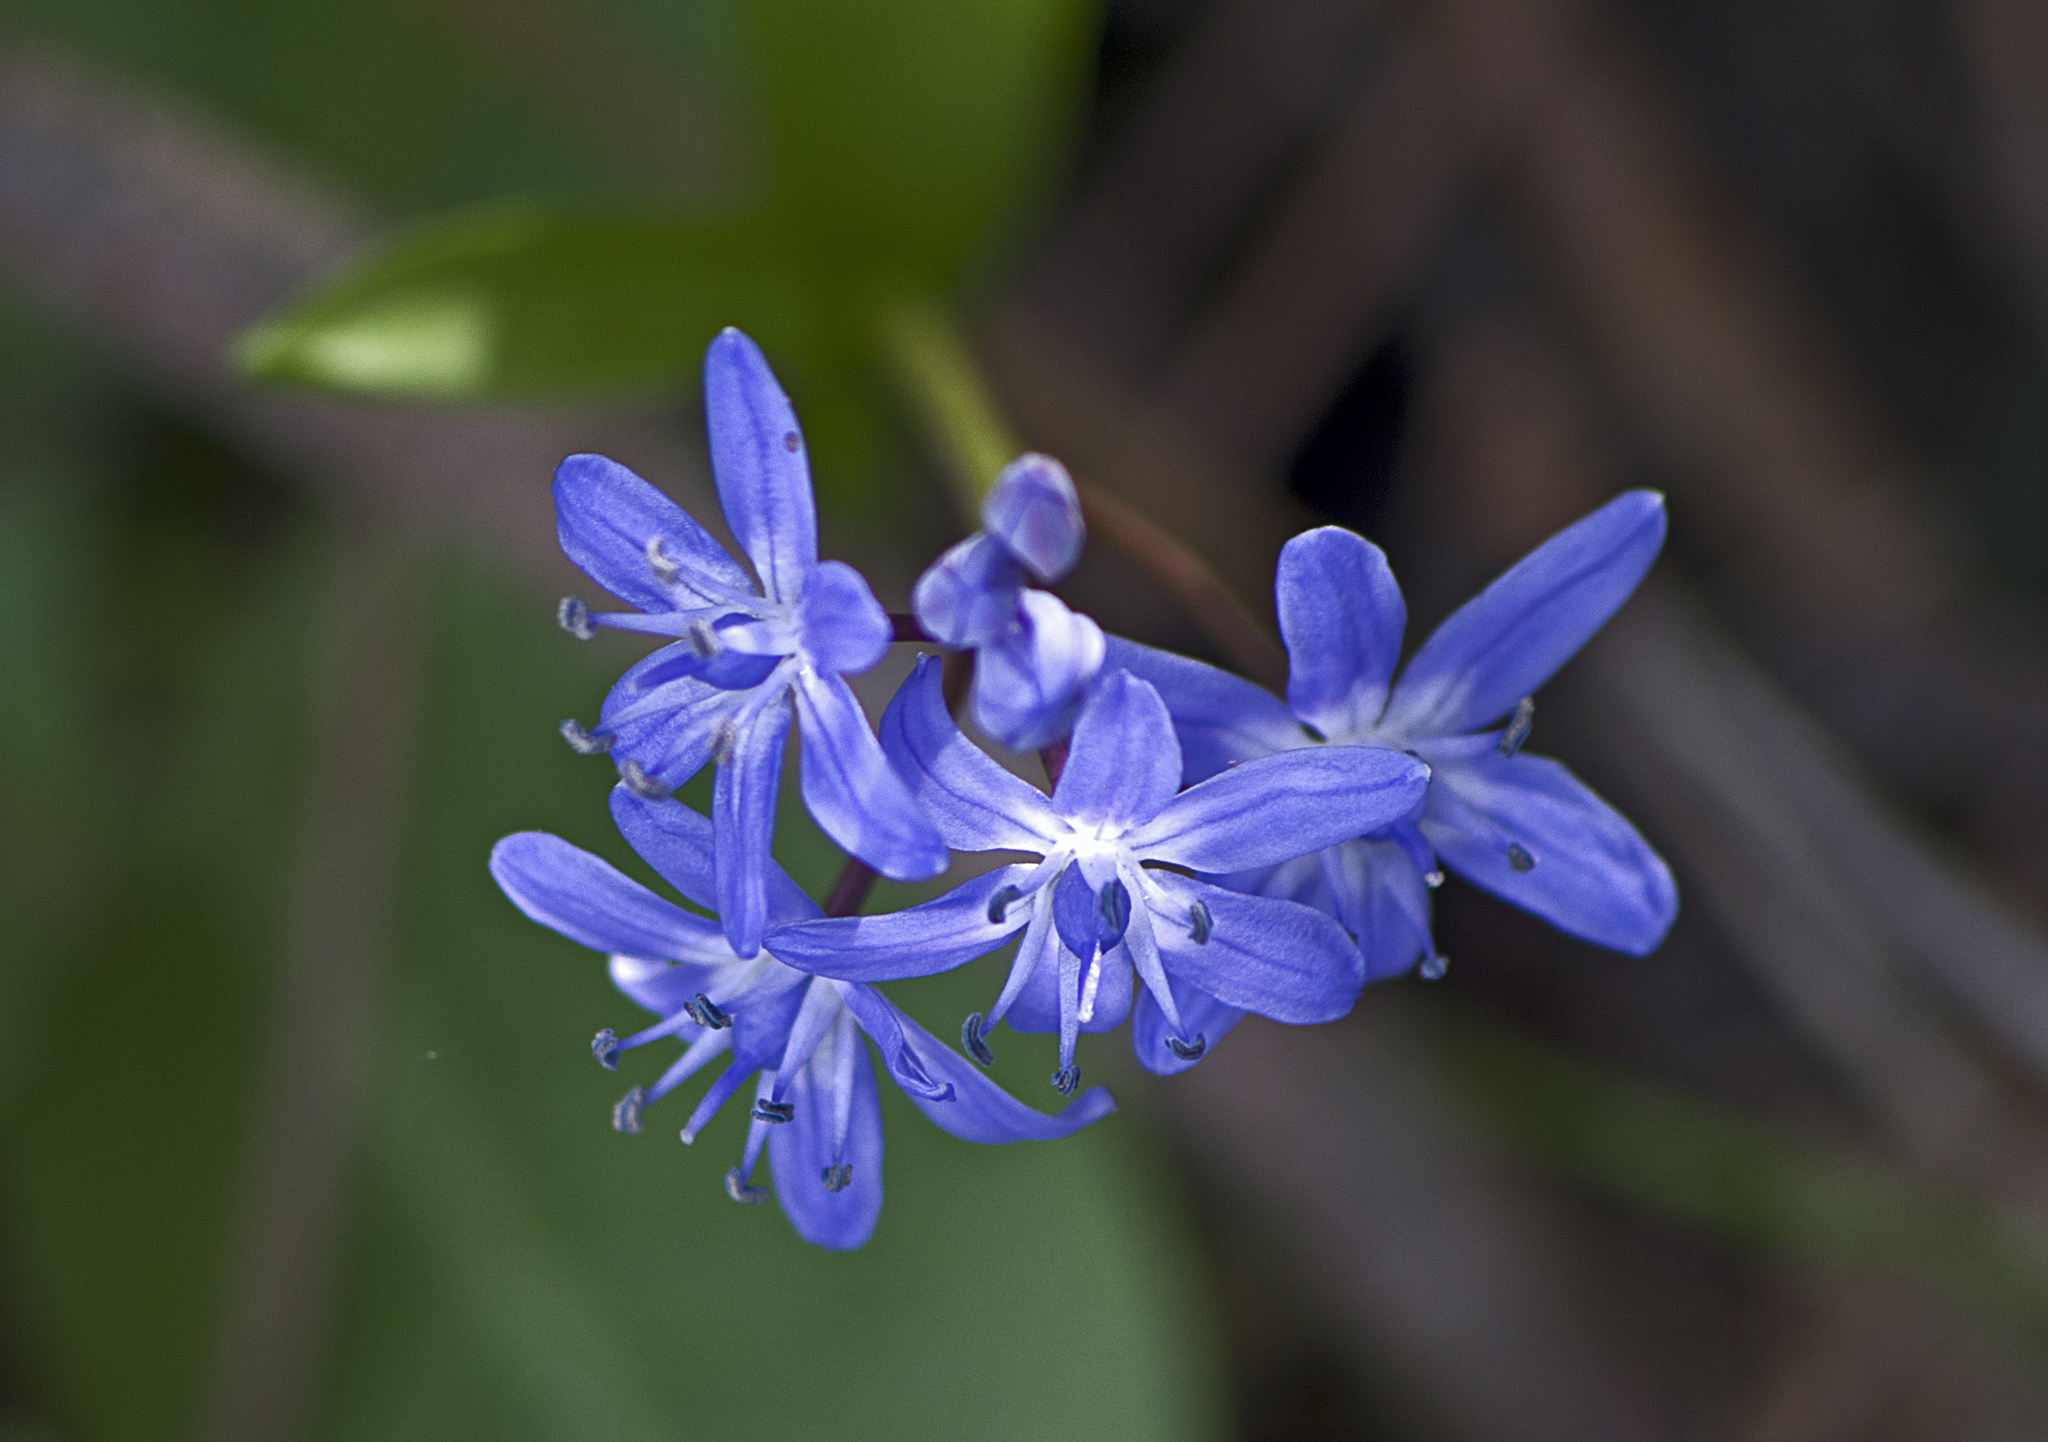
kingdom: Plantae
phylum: Tracheophyta
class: Liliopsida
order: Asparagales
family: Asparagaceae
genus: Scilla
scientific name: Scilla bifolia
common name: Alpine squill
